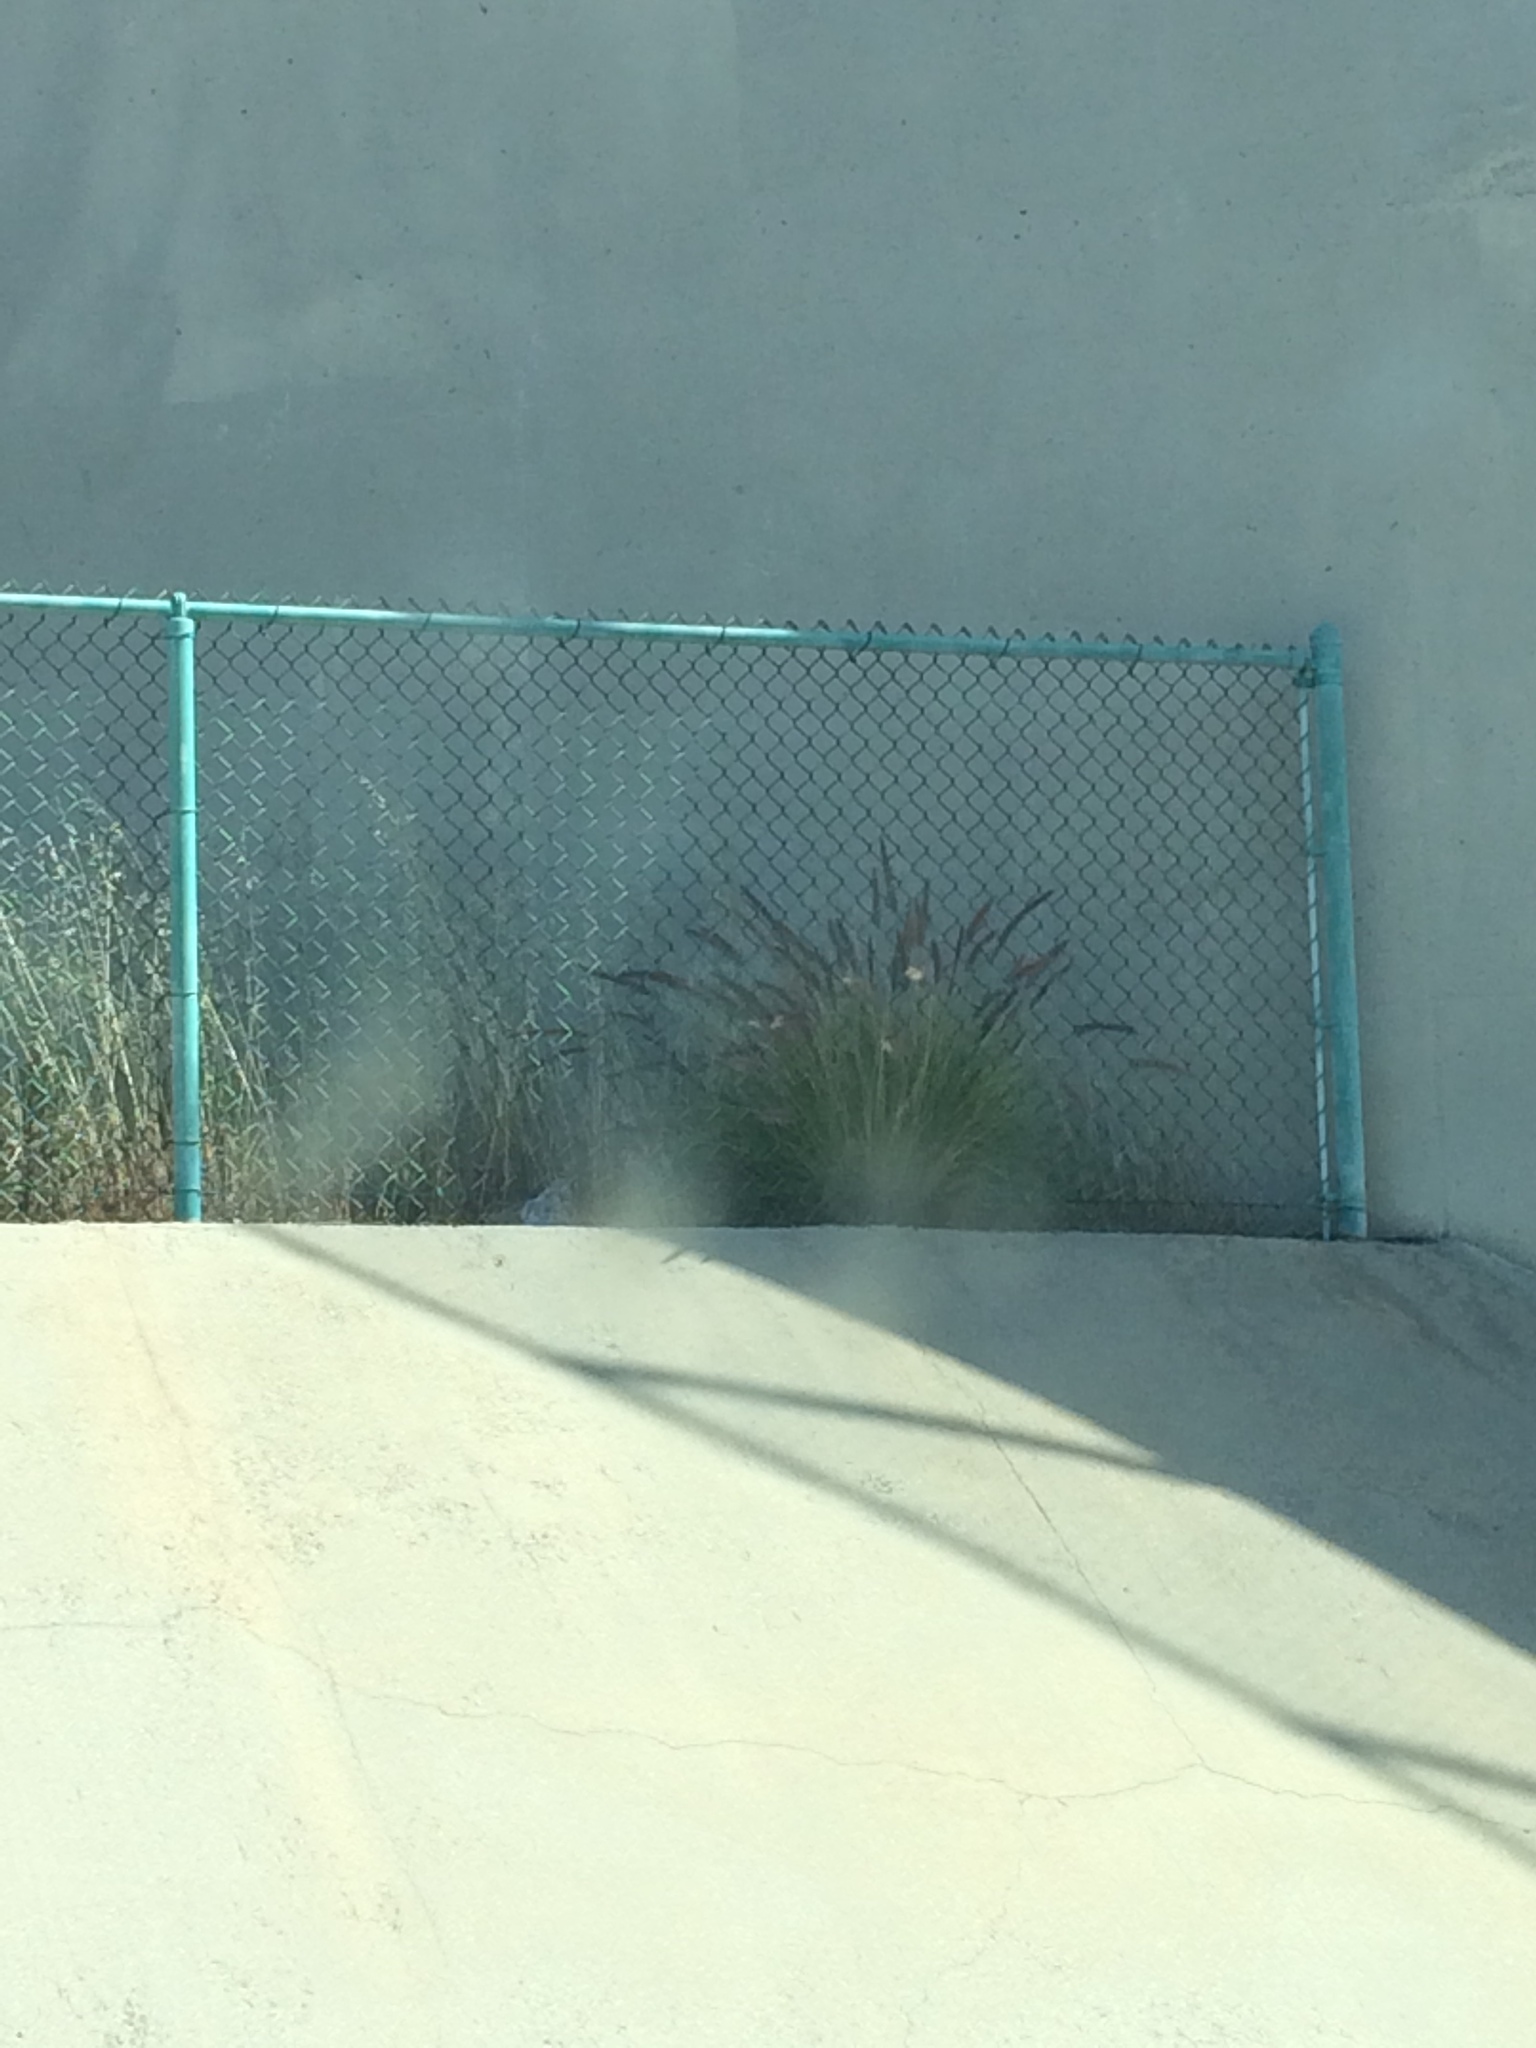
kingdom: Plantae
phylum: Tracheophyta
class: Liliopsida
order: Poales
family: Poaceae
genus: Cenchrus
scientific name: Cenchrus setaceus
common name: Crimson fountaingrass
